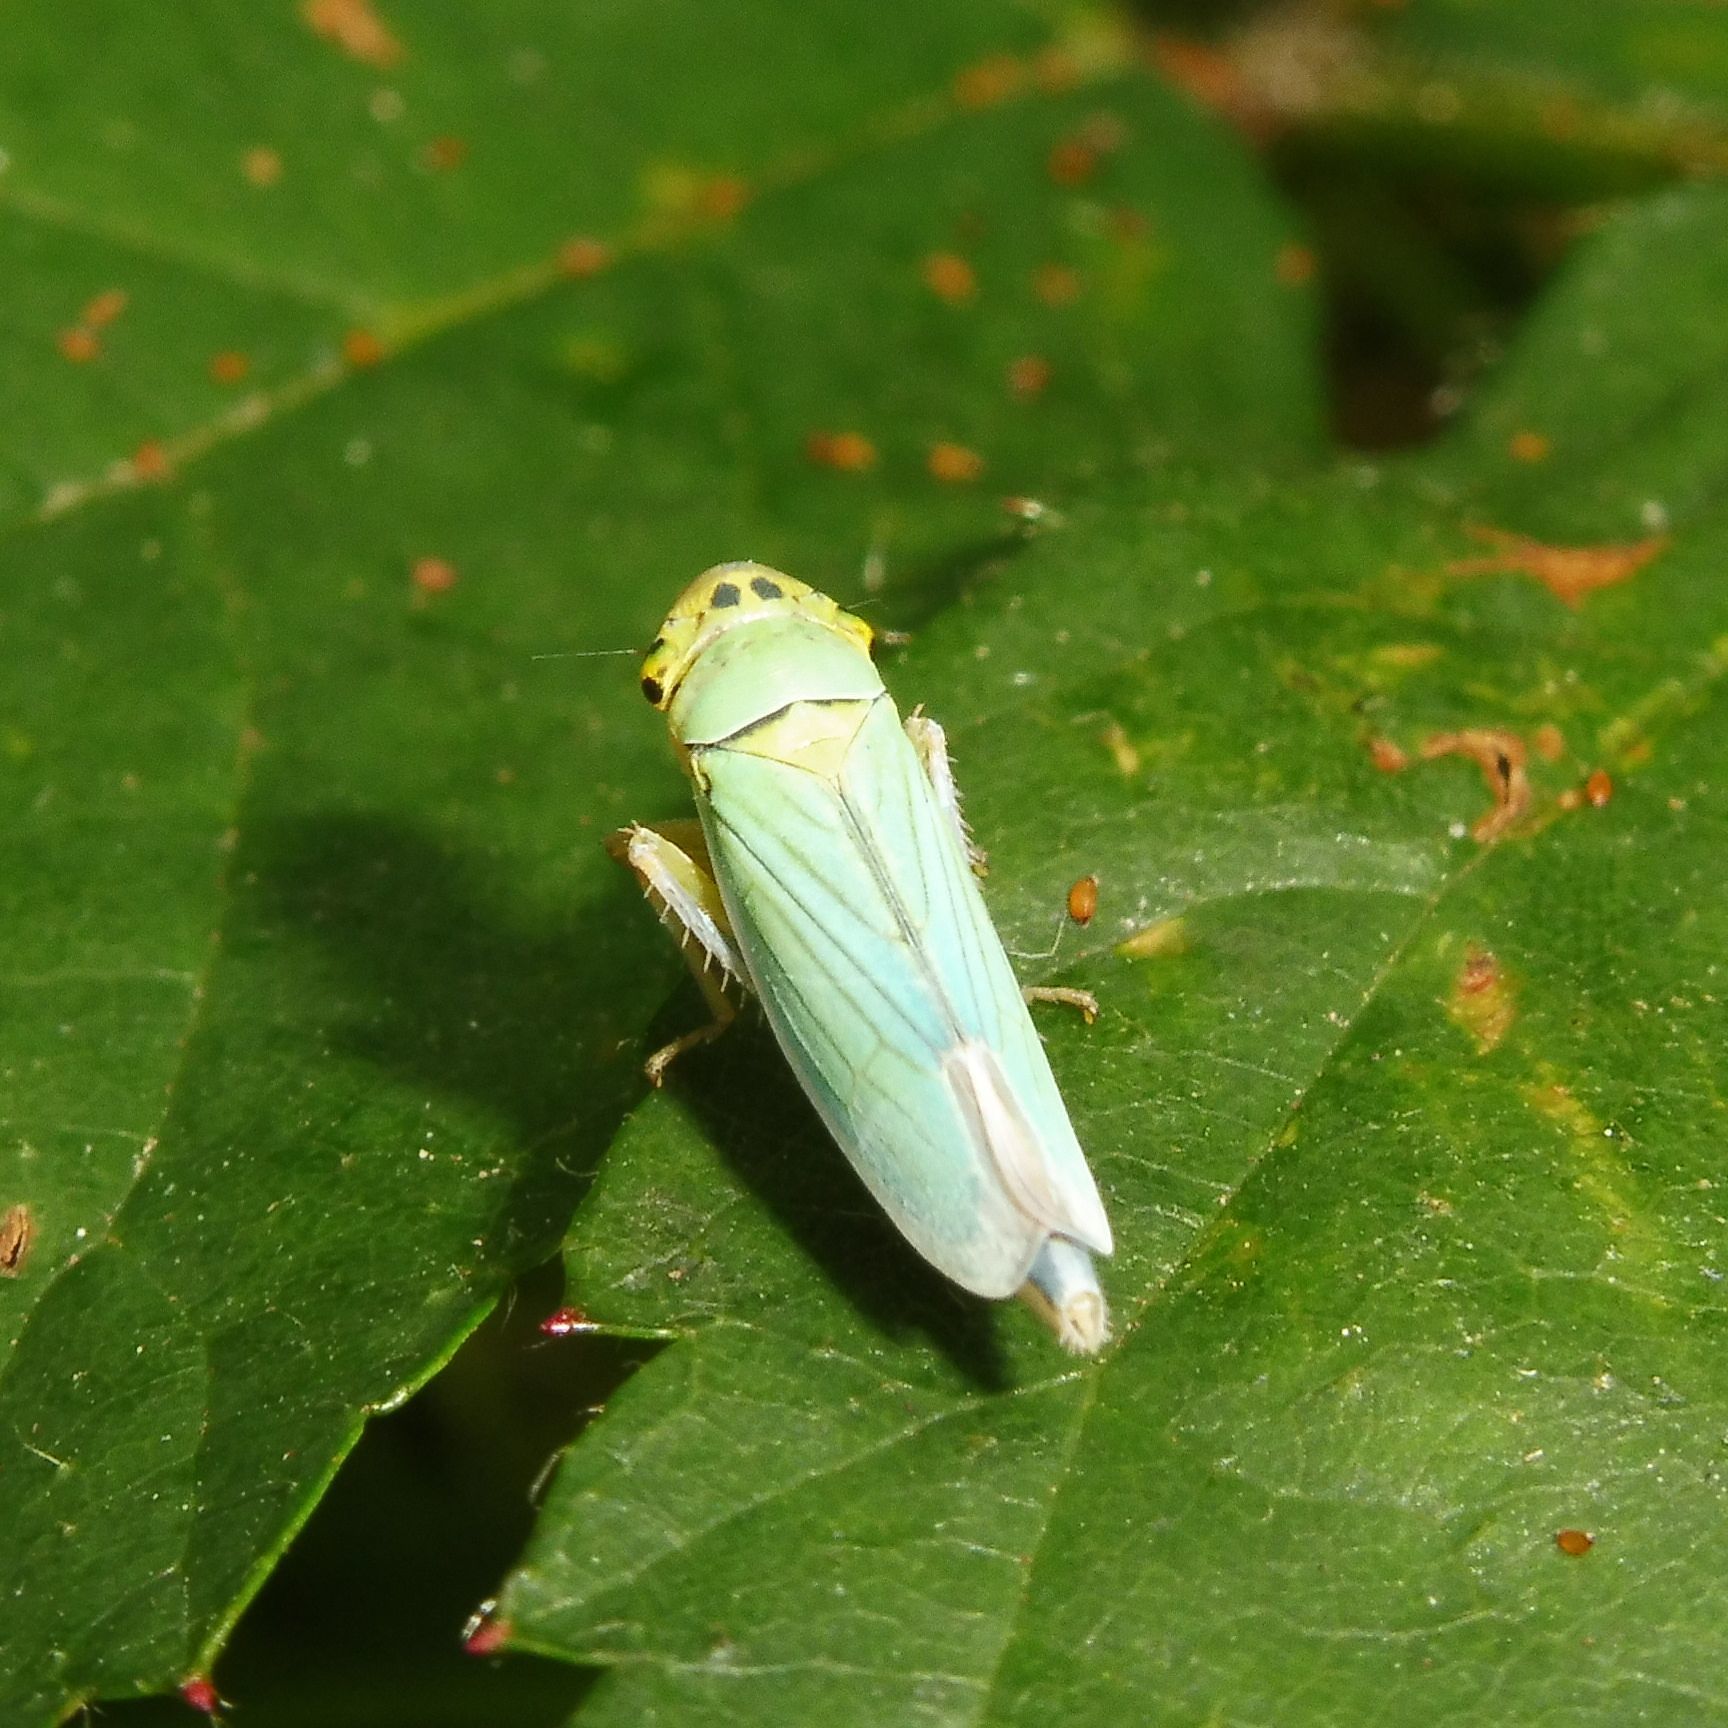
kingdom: Animalia
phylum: Arthropoda
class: Insecta
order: Hemiptera
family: Cicadellidae
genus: Cicadella
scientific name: Cicadella viridis
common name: Leafhopper
